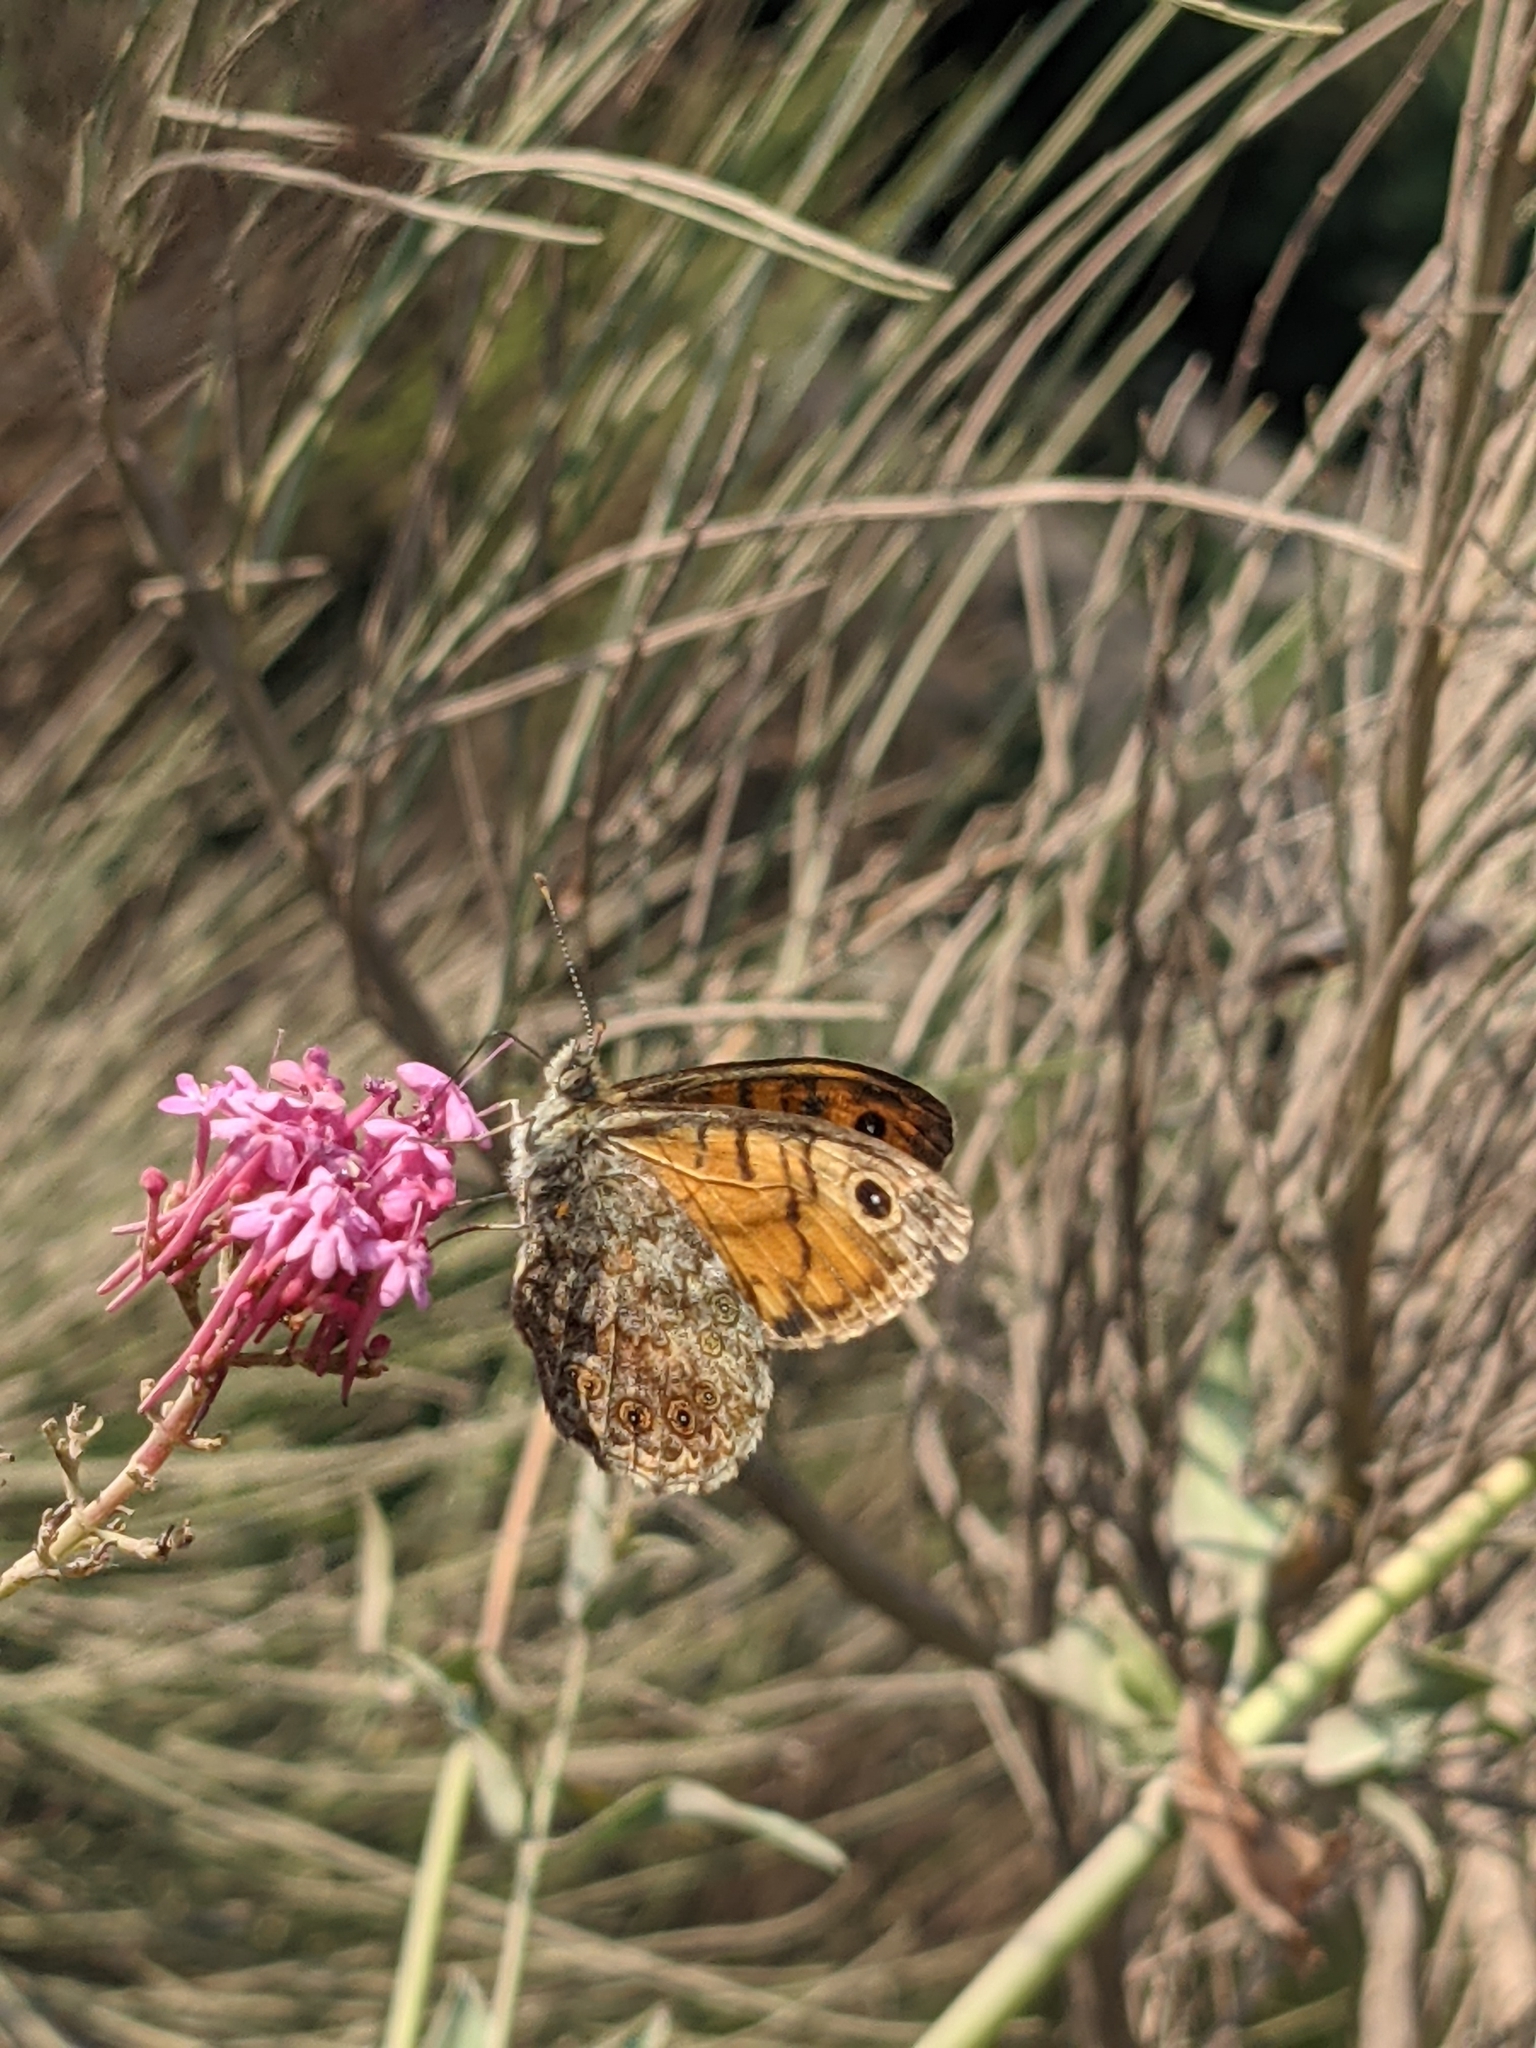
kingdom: Animalia
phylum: Arthropoda
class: Insecta
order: Lepidoptera
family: Nymphalidae
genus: Pararge
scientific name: Pararge Lasiommata megera
